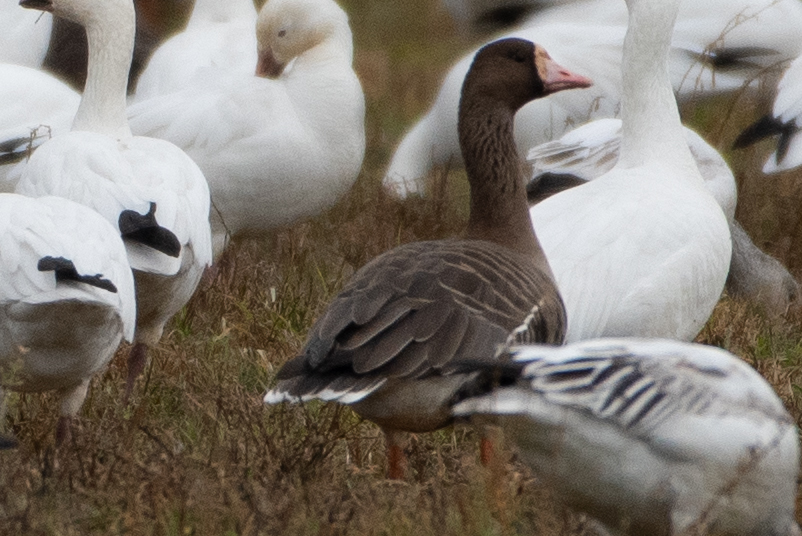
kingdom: Animalia
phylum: Chordata
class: Aves
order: Anseriformes
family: Anatidae
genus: Anser
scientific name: Anser albifrons
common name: Greater white-fronted goose
